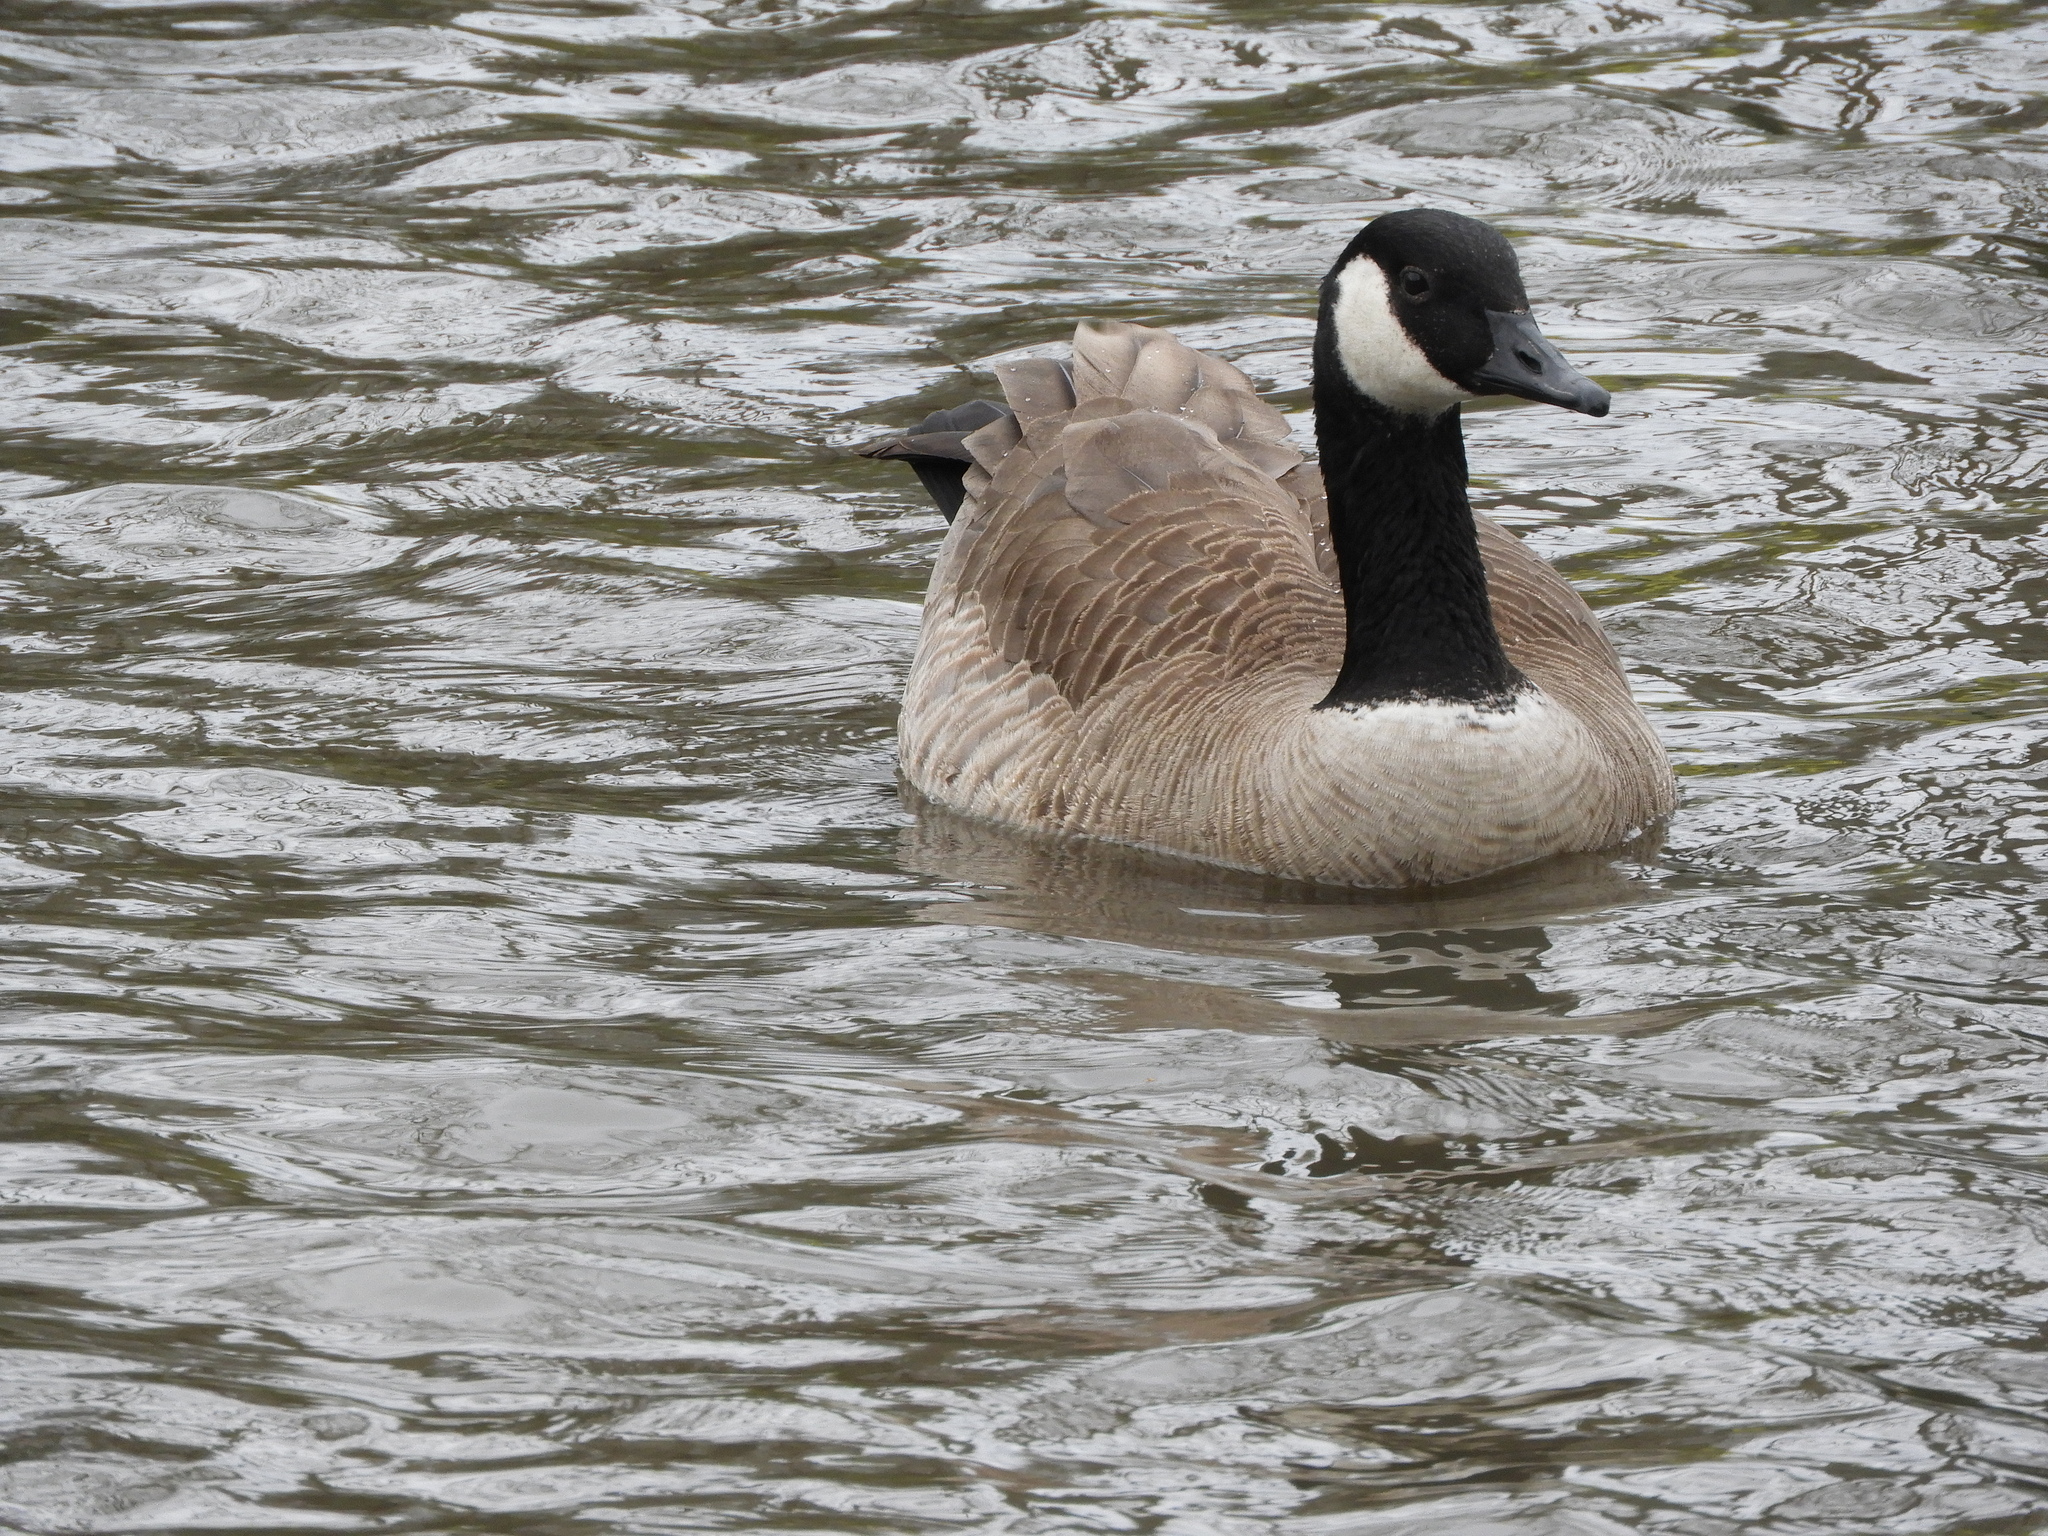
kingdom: Animalia
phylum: Chordata
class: Aves
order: Anseriformes
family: Anatidae
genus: Branta
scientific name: Branta canadensis
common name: Canada goose
